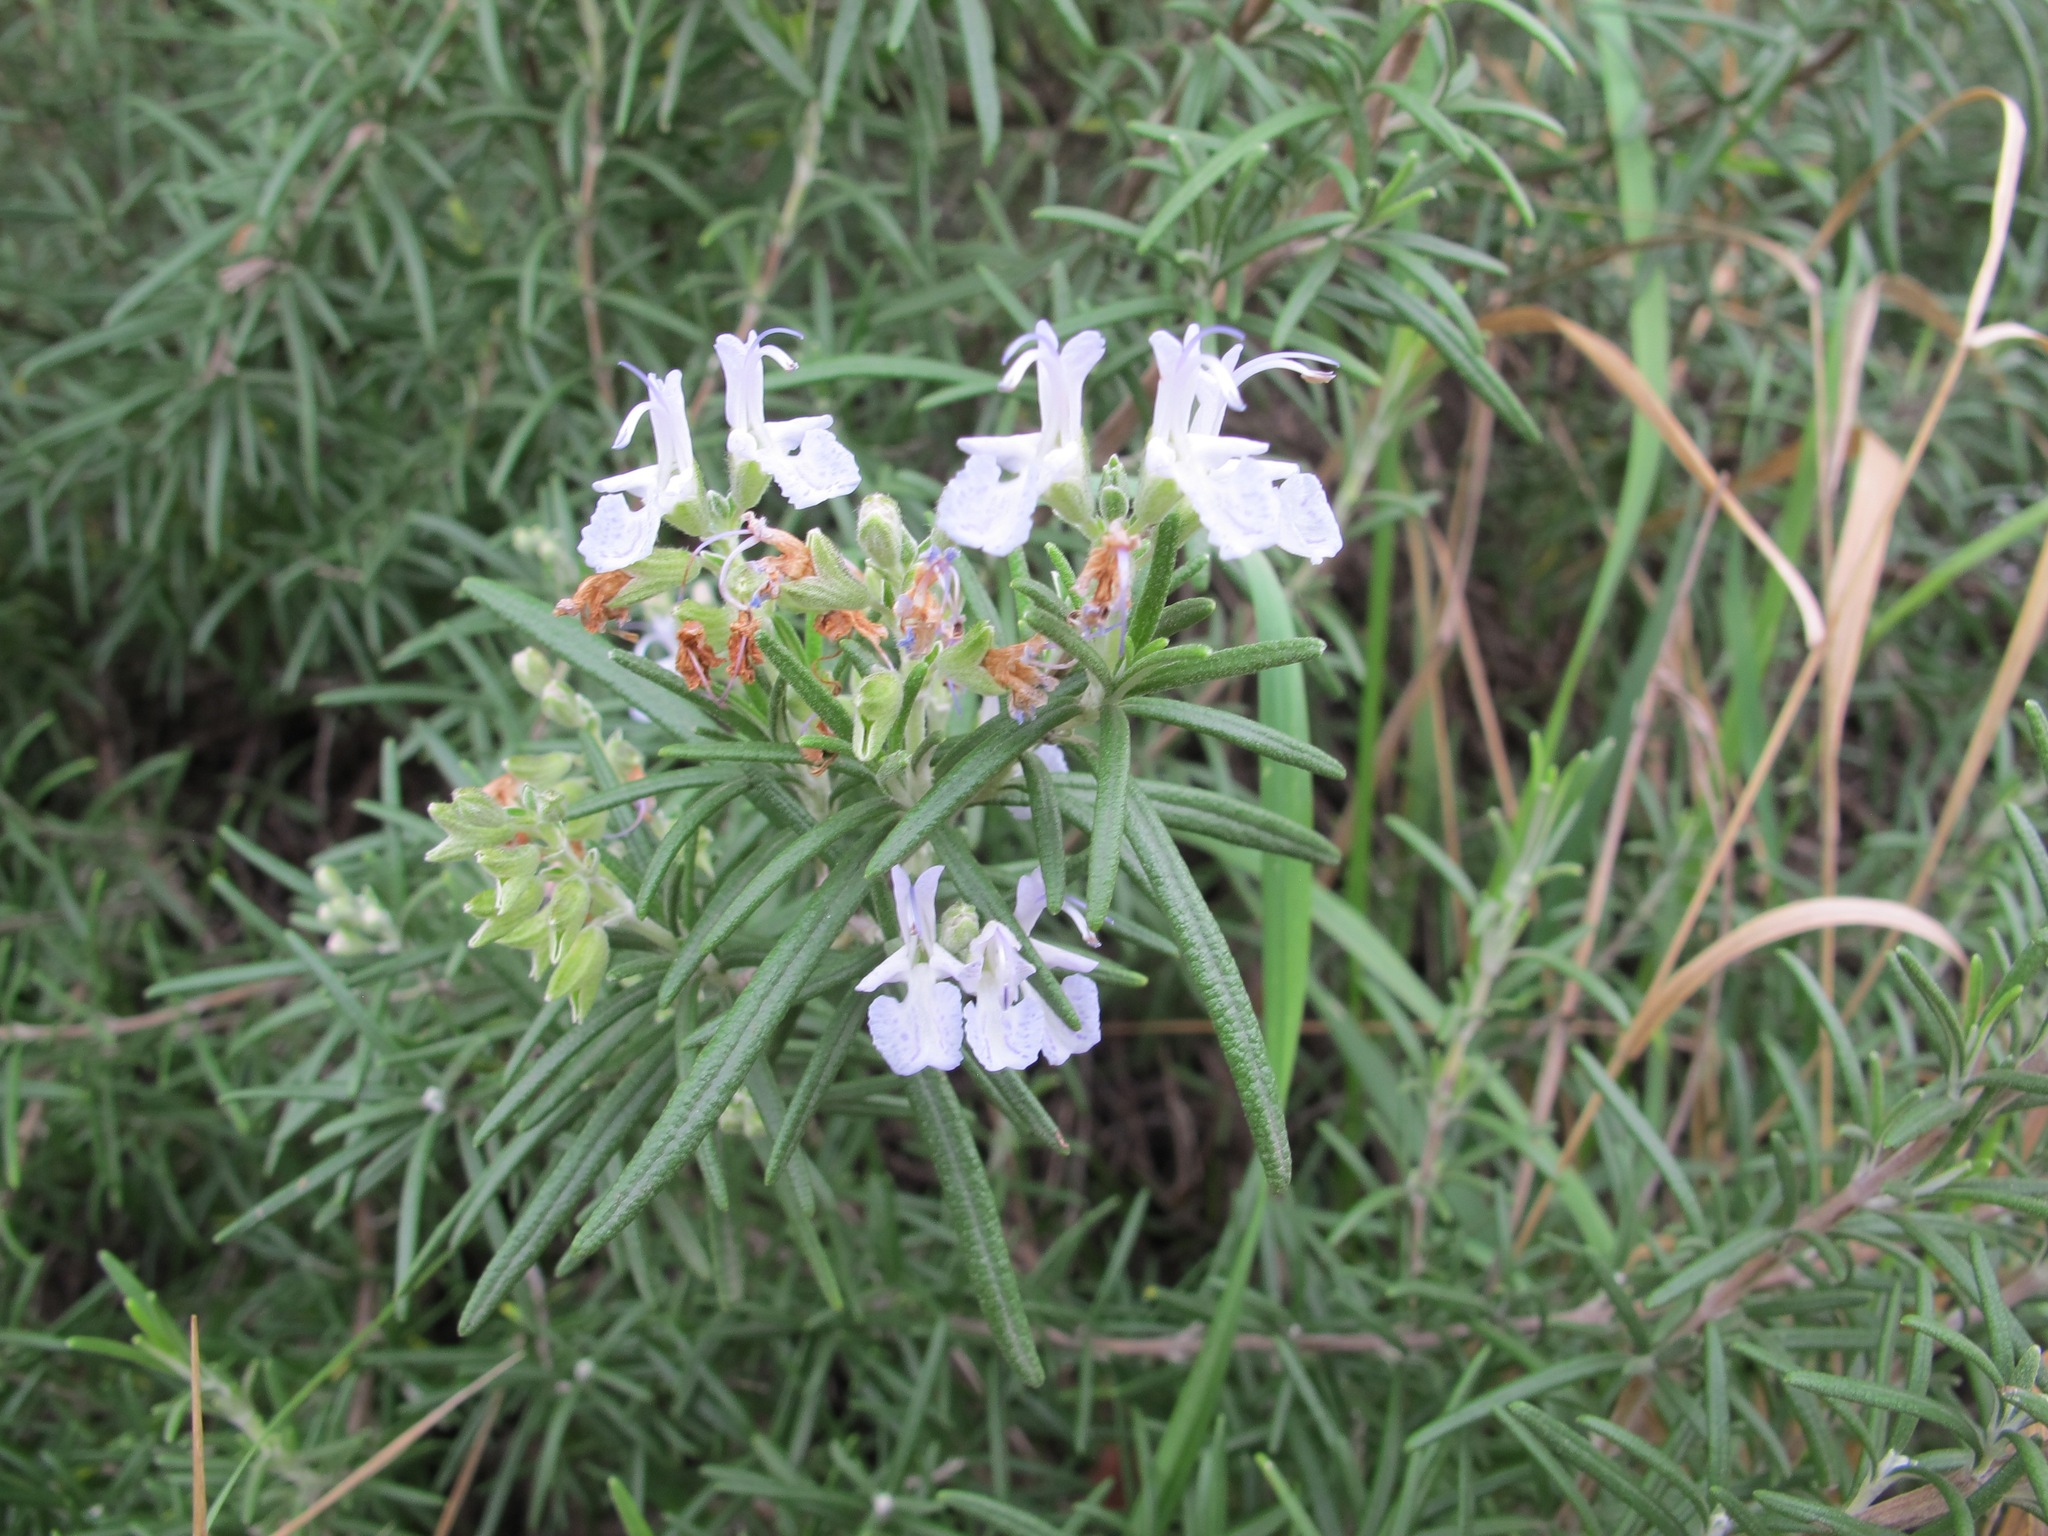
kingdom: Plantae
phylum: Tracheophyta
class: Magnoliopsida
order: Lamiales
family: Lamiaceae
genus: Salvia
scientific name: Salvia rosmarinus
